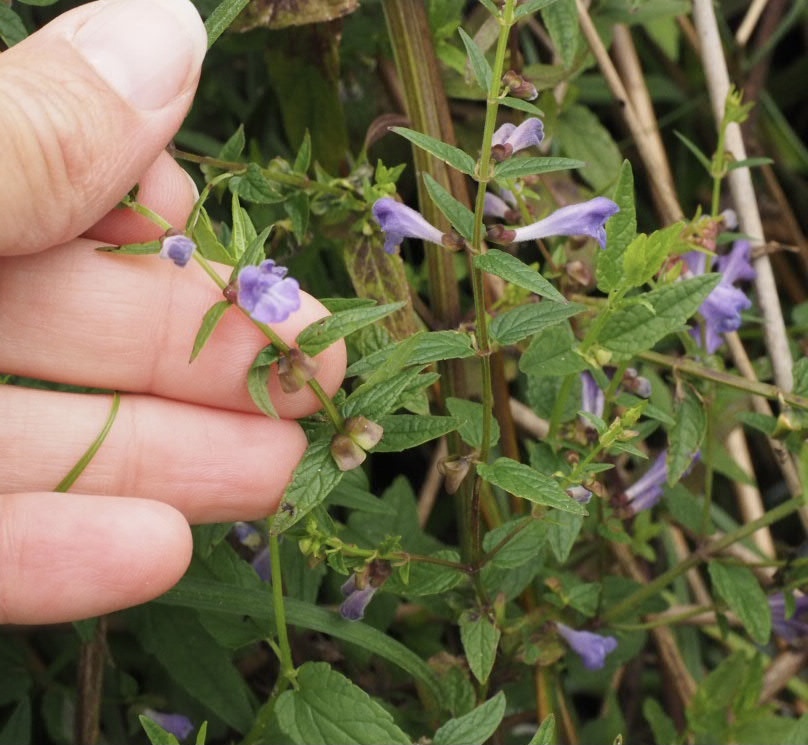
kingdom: Plantae
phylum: Tracheophyta
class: Magnoliopsida
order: Lamiales
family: Lamiaceae
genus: Scutellaria
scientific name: Scutellaria galericulata
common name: Skullcap
